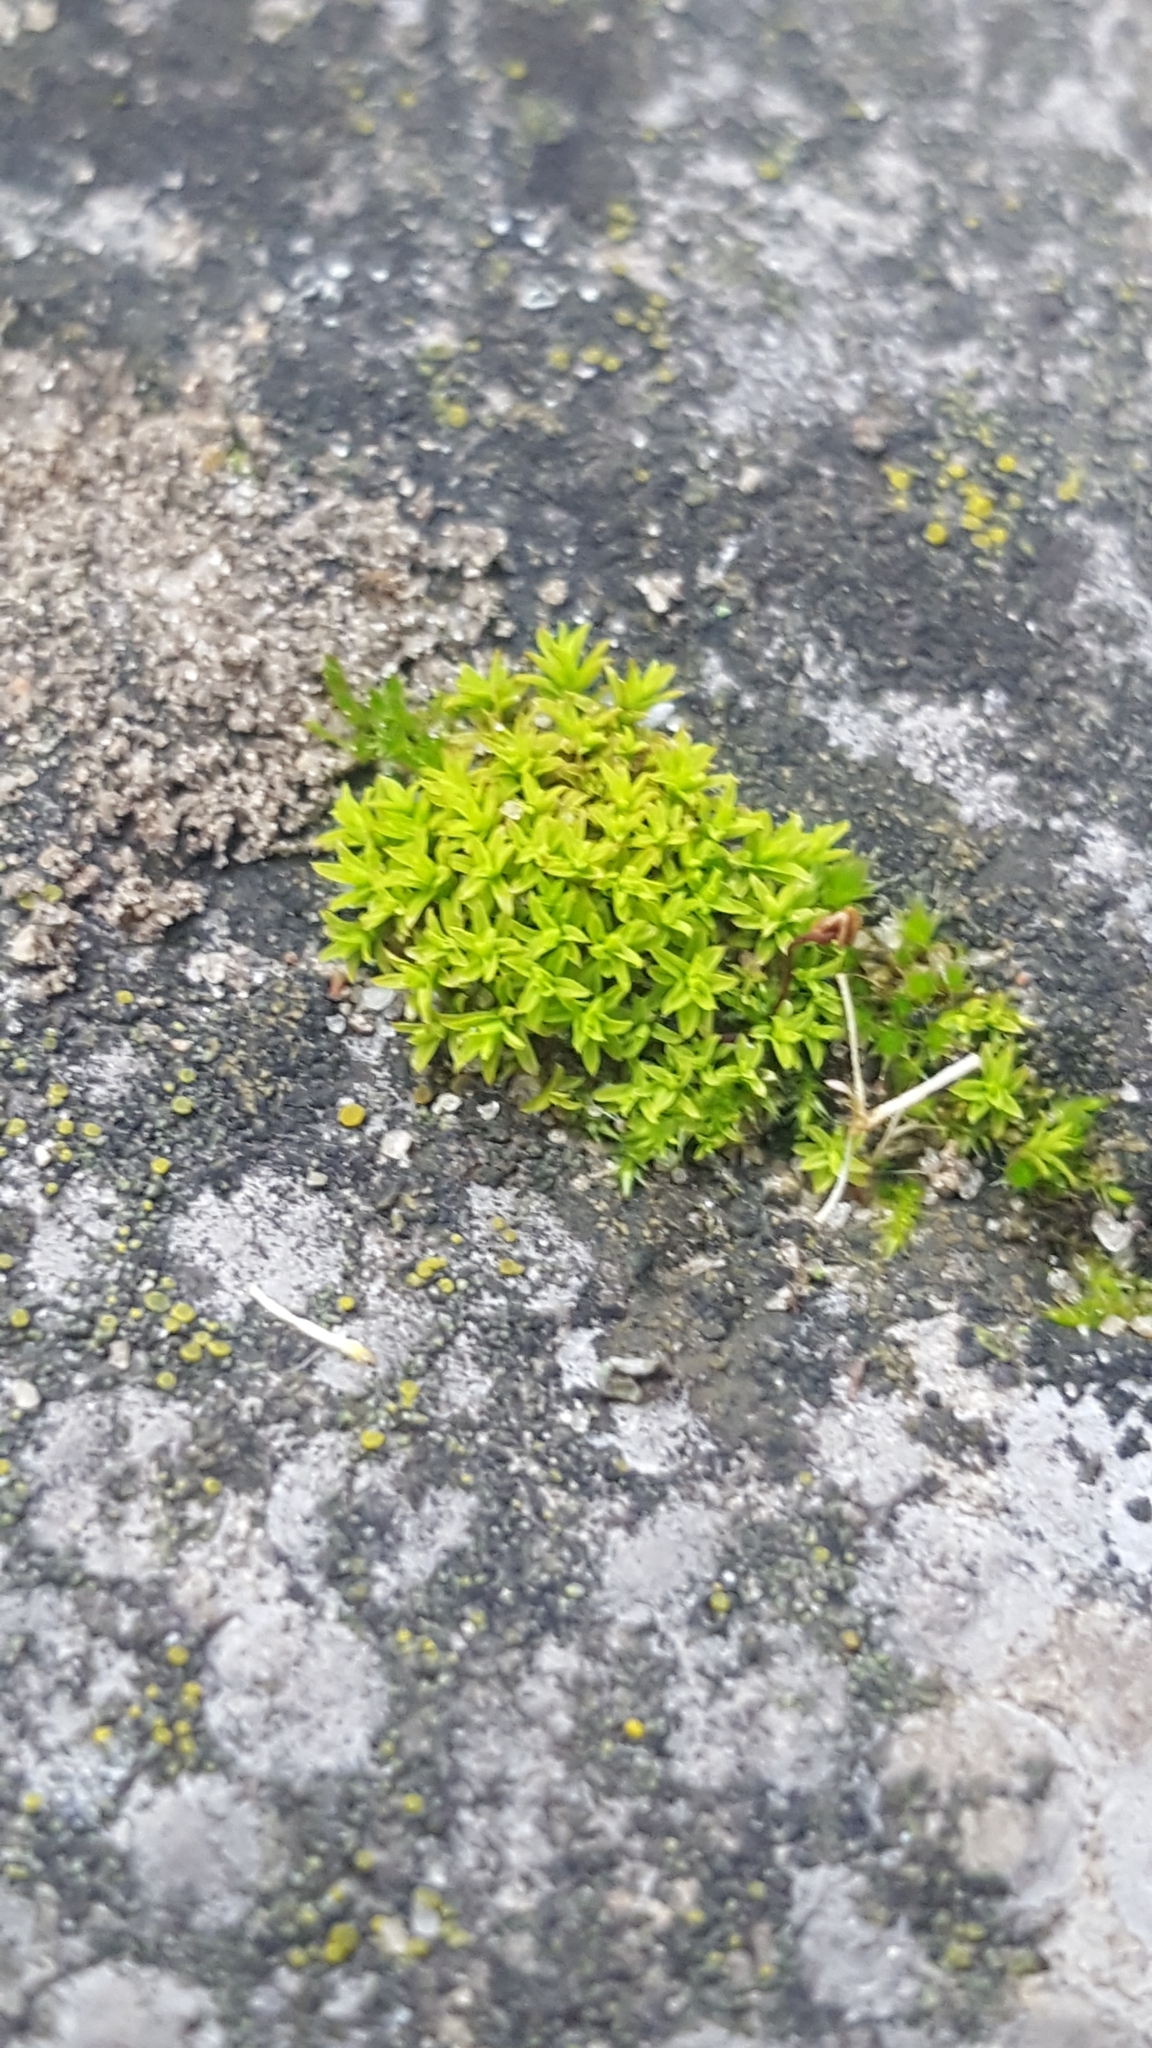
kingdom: Plantae
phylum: Bryophyta
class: Bryopsida
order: Pottiales
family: Pottiaceae
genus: Barbula
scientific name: Barbula unguiculata
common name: Prickly beard moss
